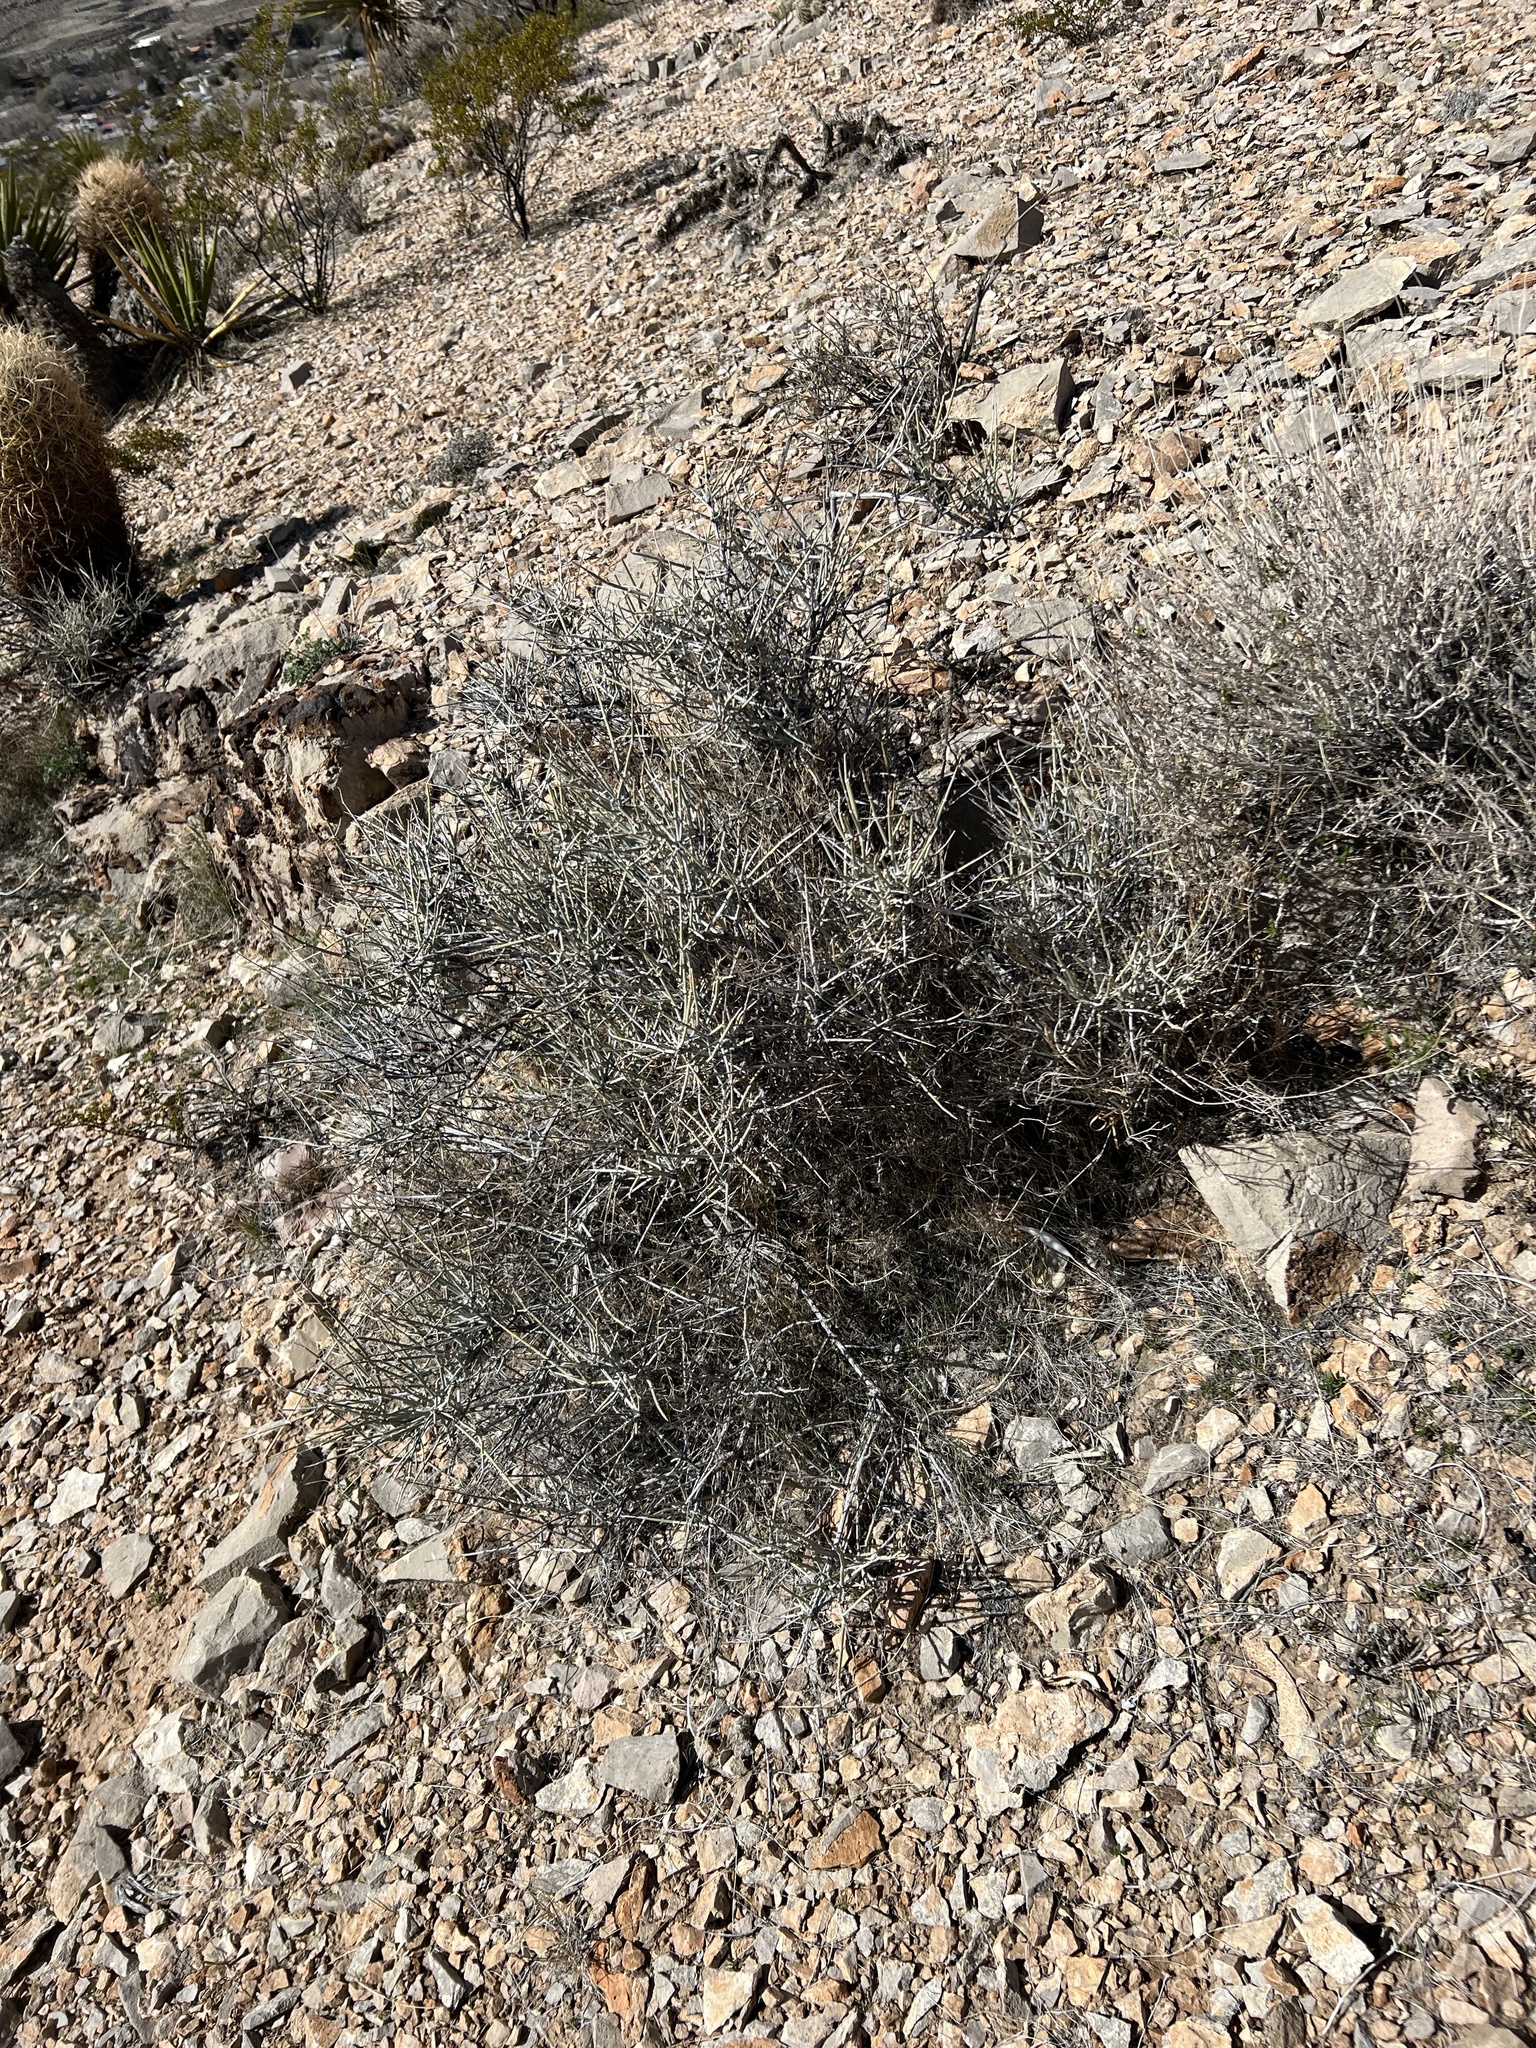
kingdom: Plantae
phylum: Tracheophyta
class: Gnetopsida
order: Ephedrales
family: Ephedraceae
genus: Ephedra
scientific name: Ephedra nevadensis
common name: Gray ephedra
